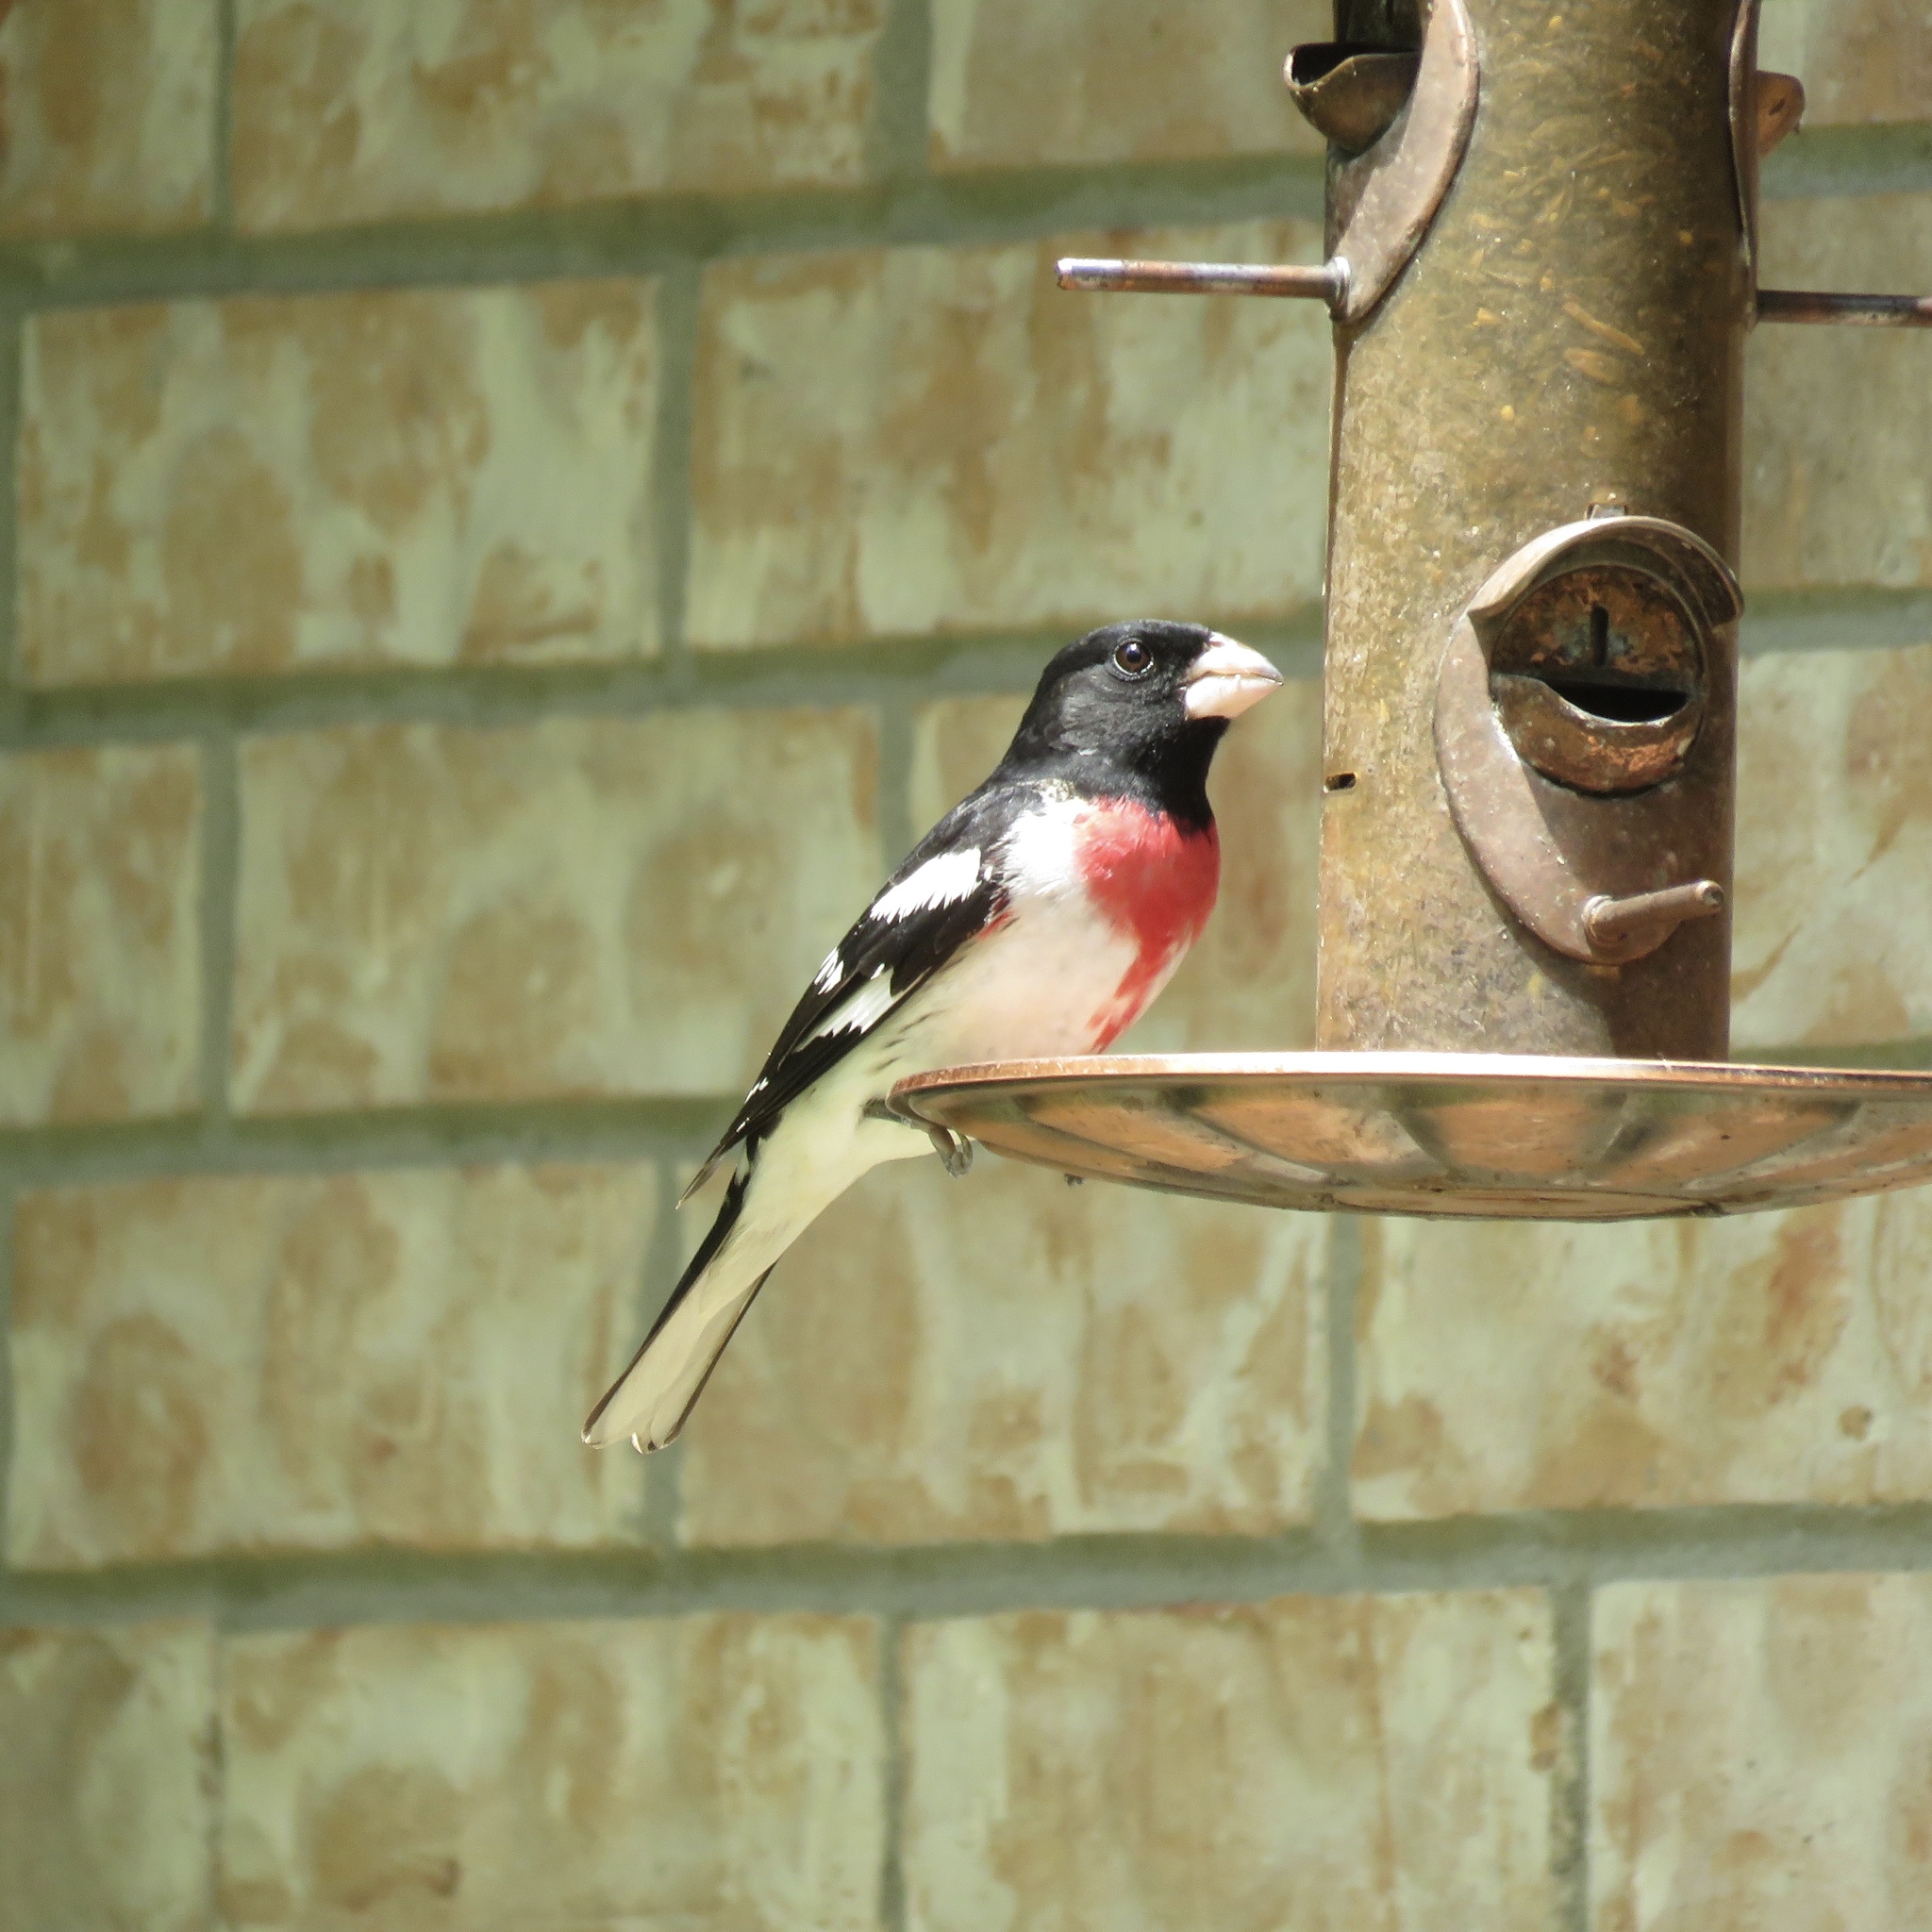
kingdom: Animalia
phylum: Chordata
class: Aves
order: Passeriformes
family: Cardinalidae
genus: Pheucticus
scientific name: Pheucticus ludovicianus
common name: Rose-breasted grosbeak
